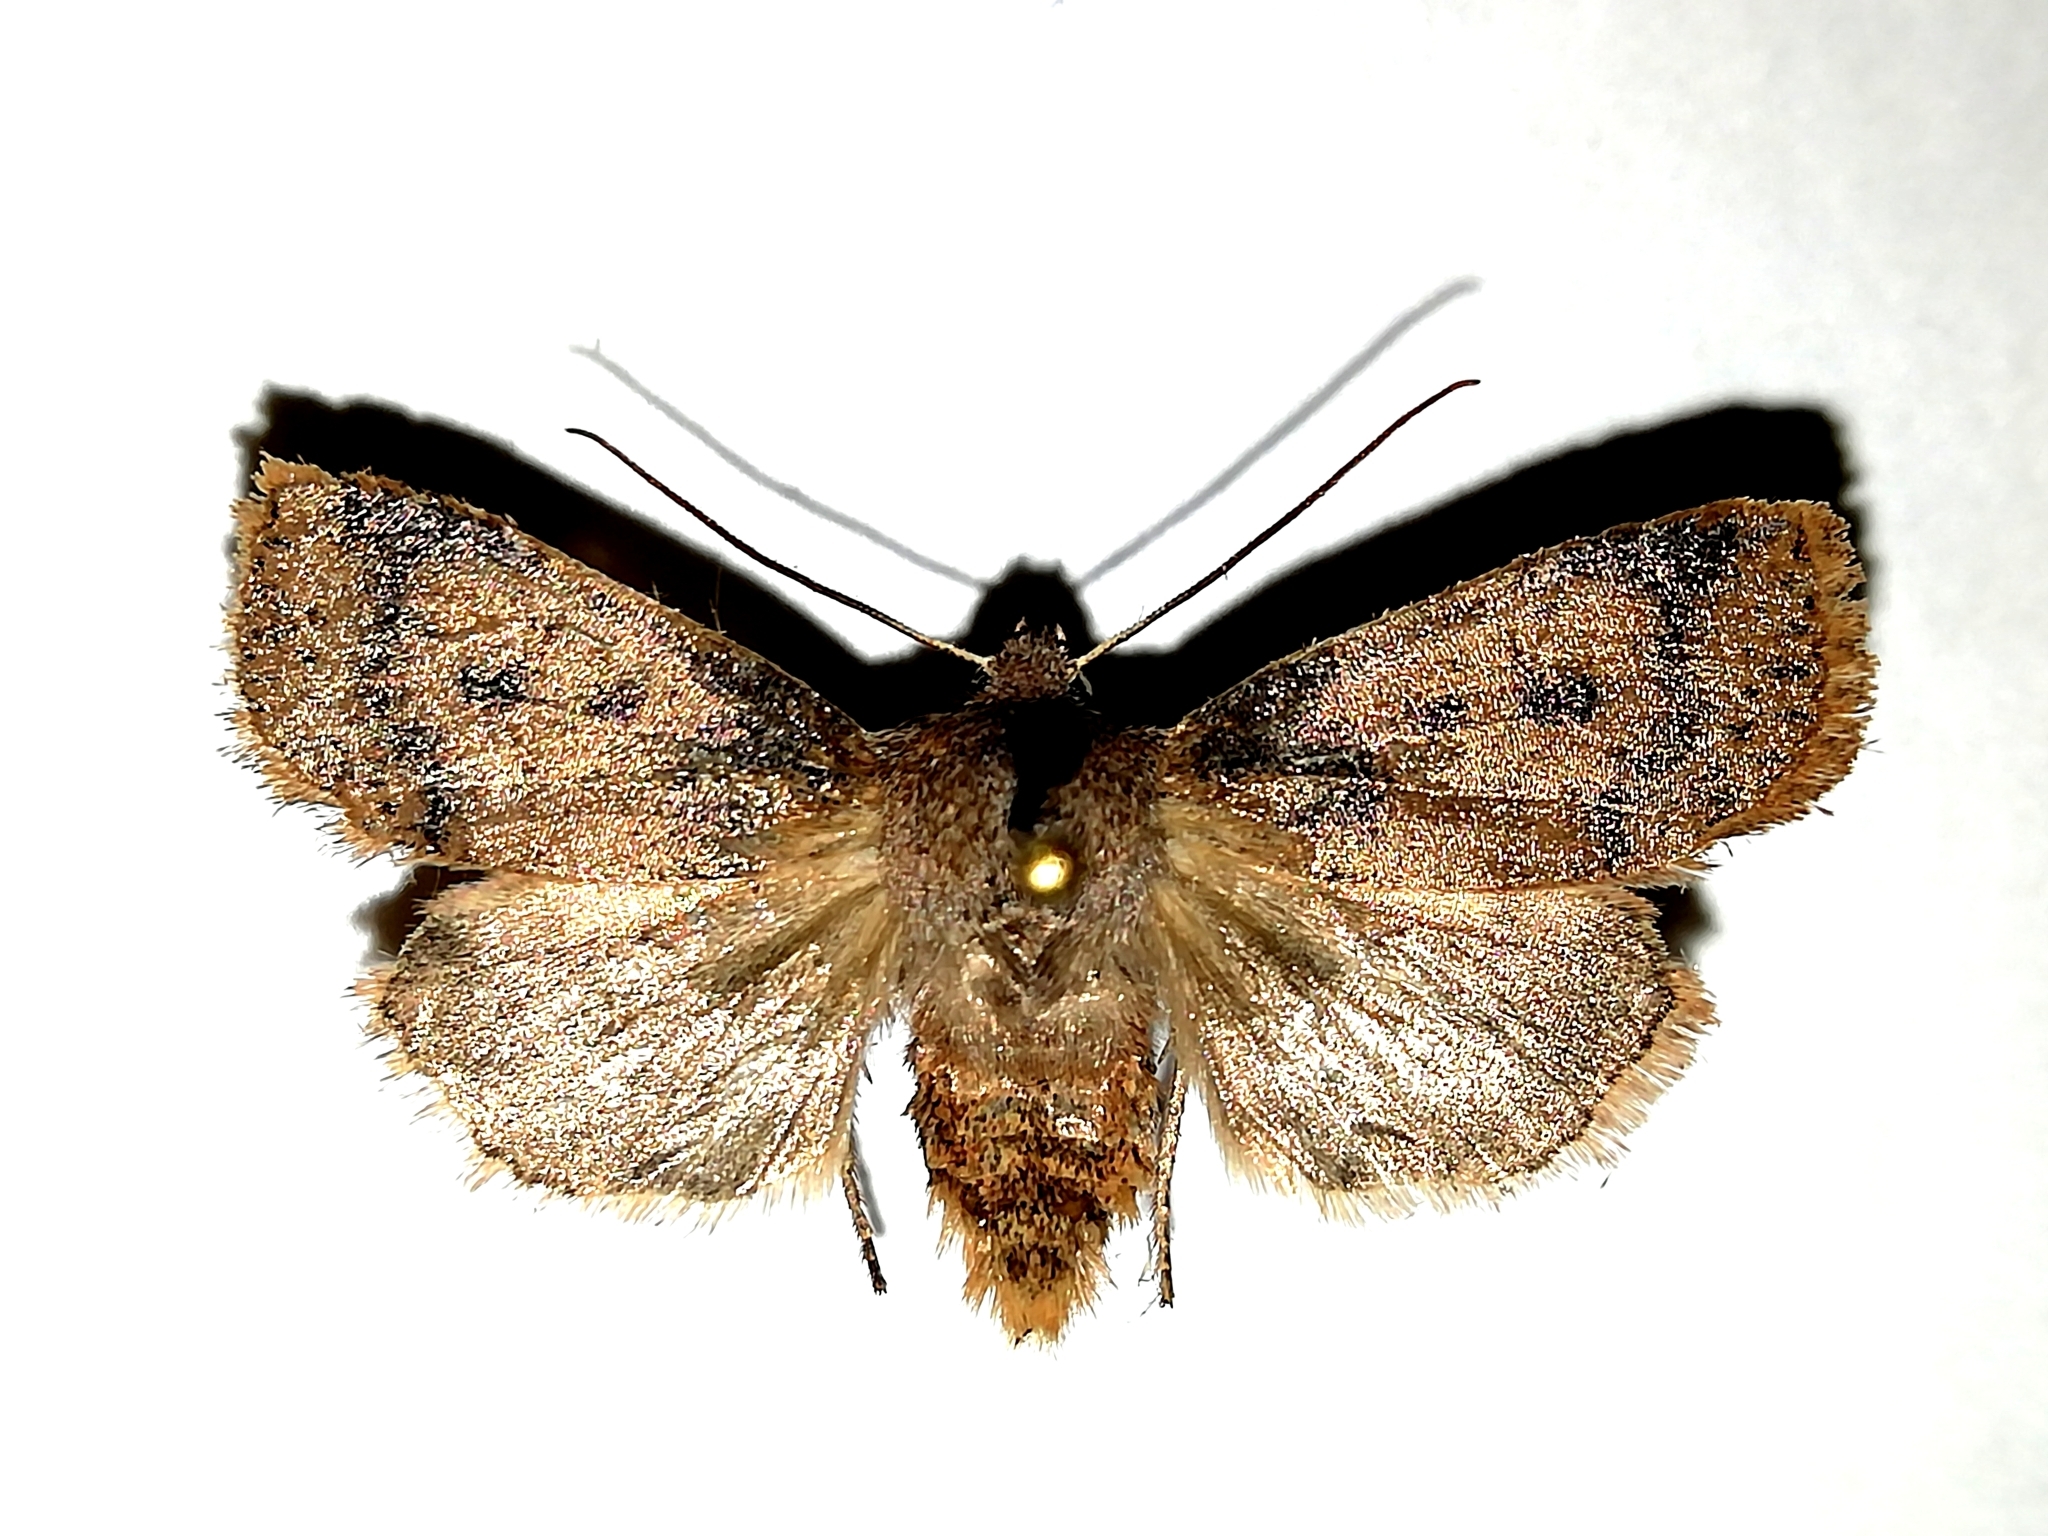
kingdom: Animalia
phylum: Arthropoda
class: Insecta
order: Lepidoptera
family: Noctuidae
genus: Conistra
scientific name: Conistra vaccinii
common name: Chestnut
